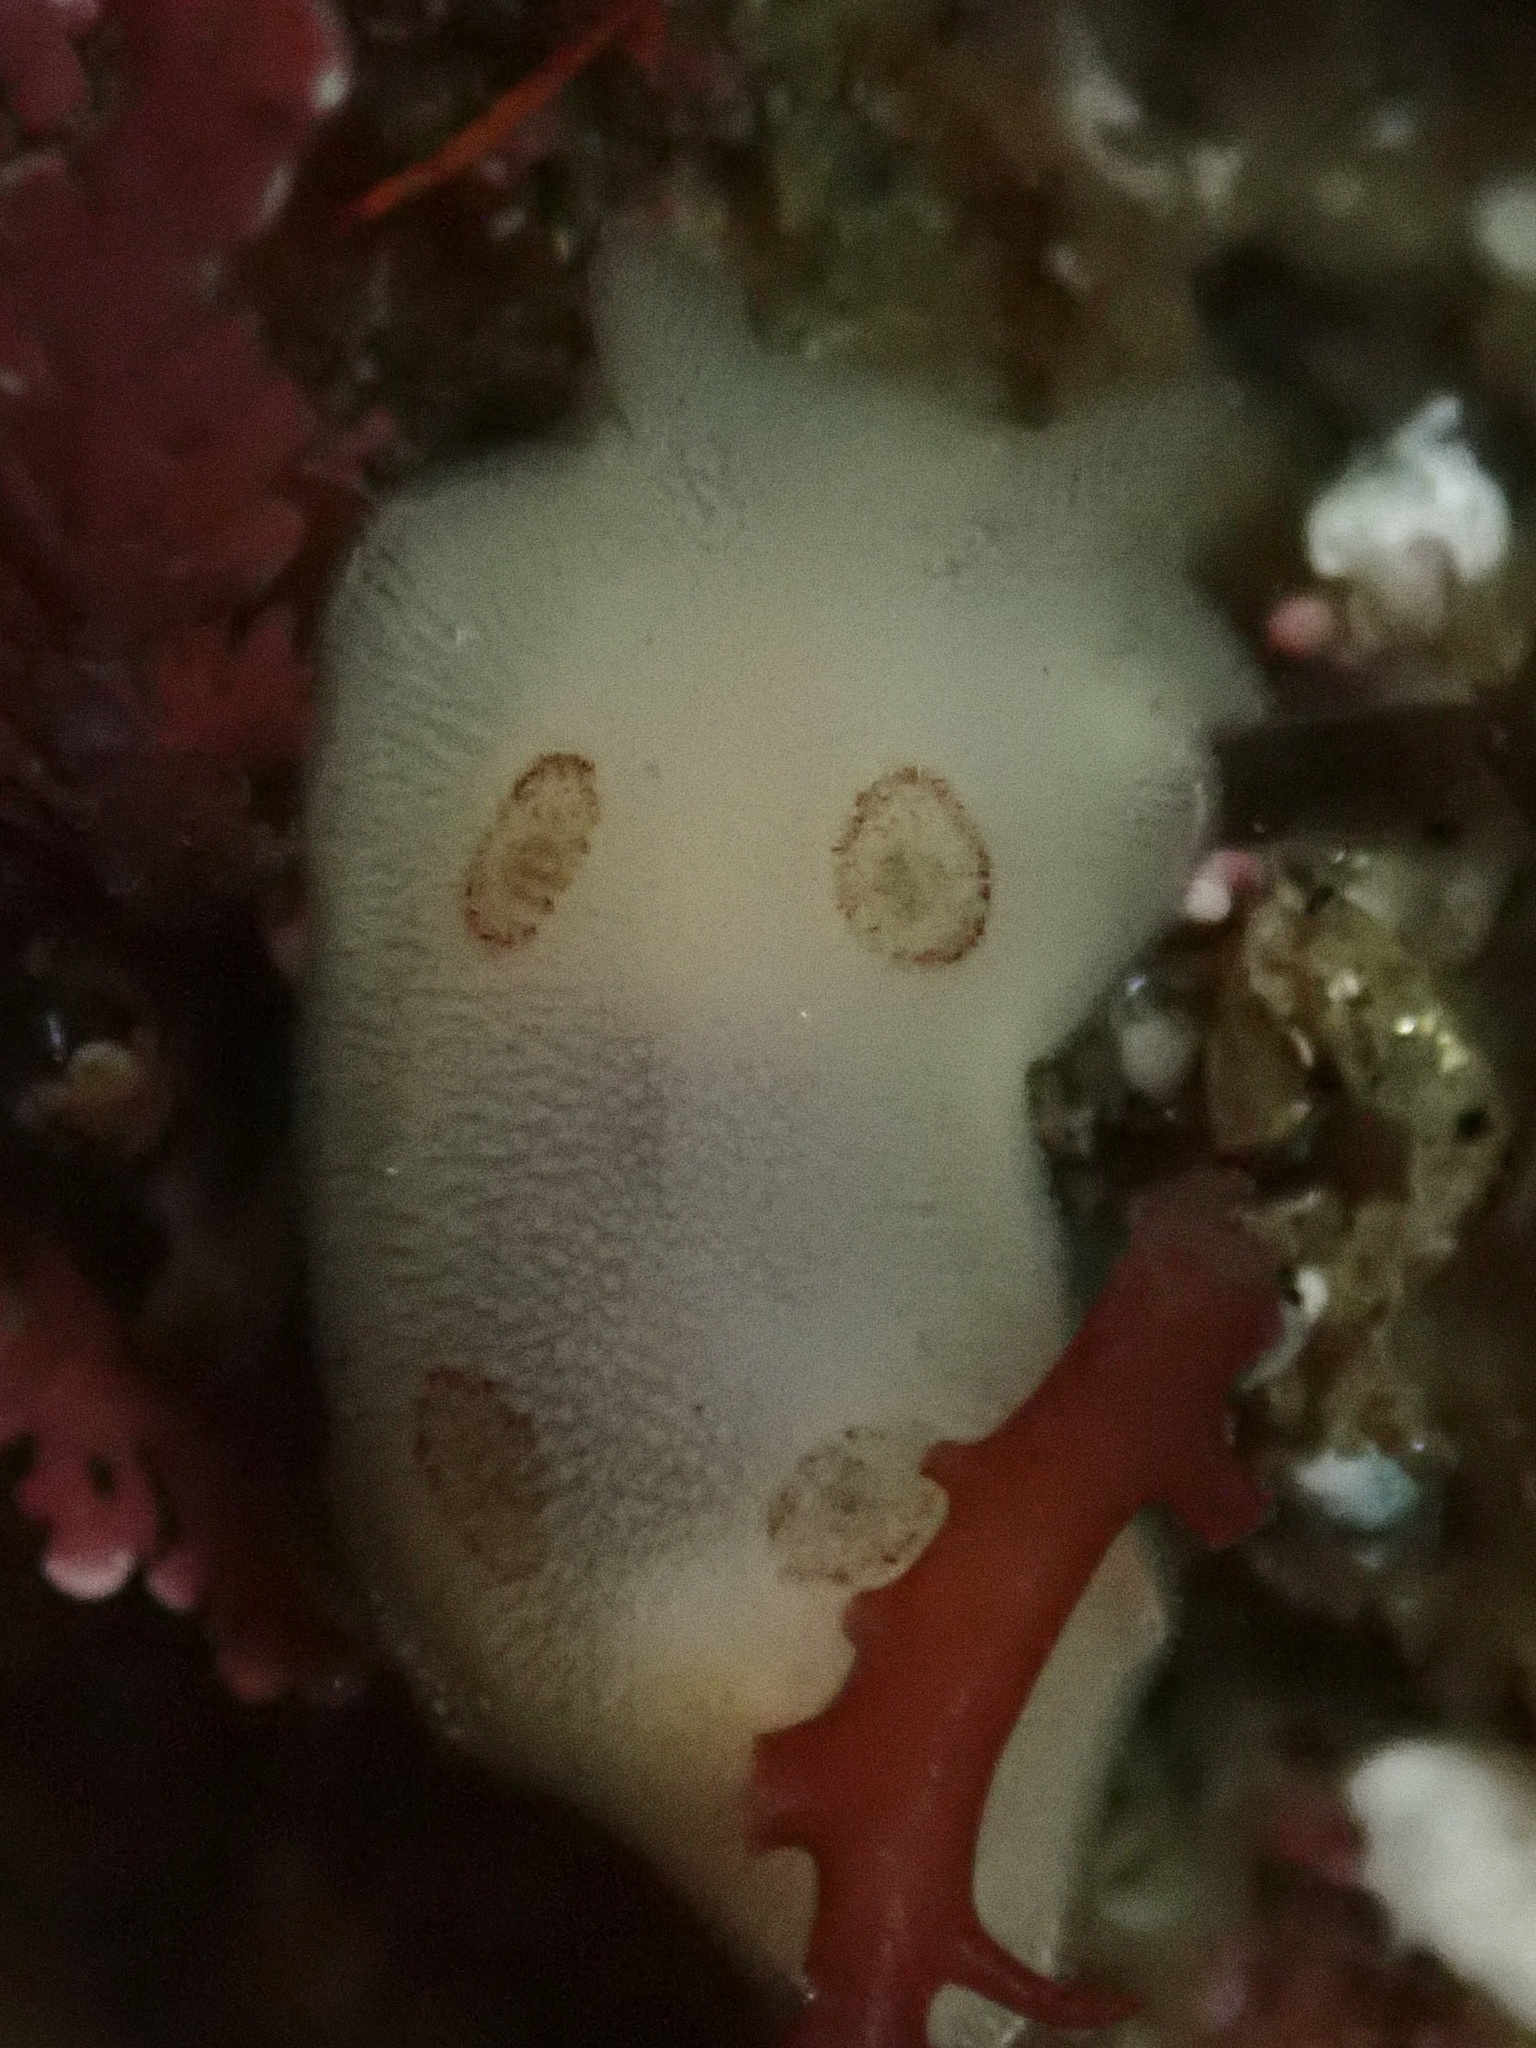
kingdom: Animalia
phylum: Mollusca
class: Gastropoda
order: Nudibranchia
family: Discodorididae
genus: Diaulula
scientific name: Diaulula sandiegensis
